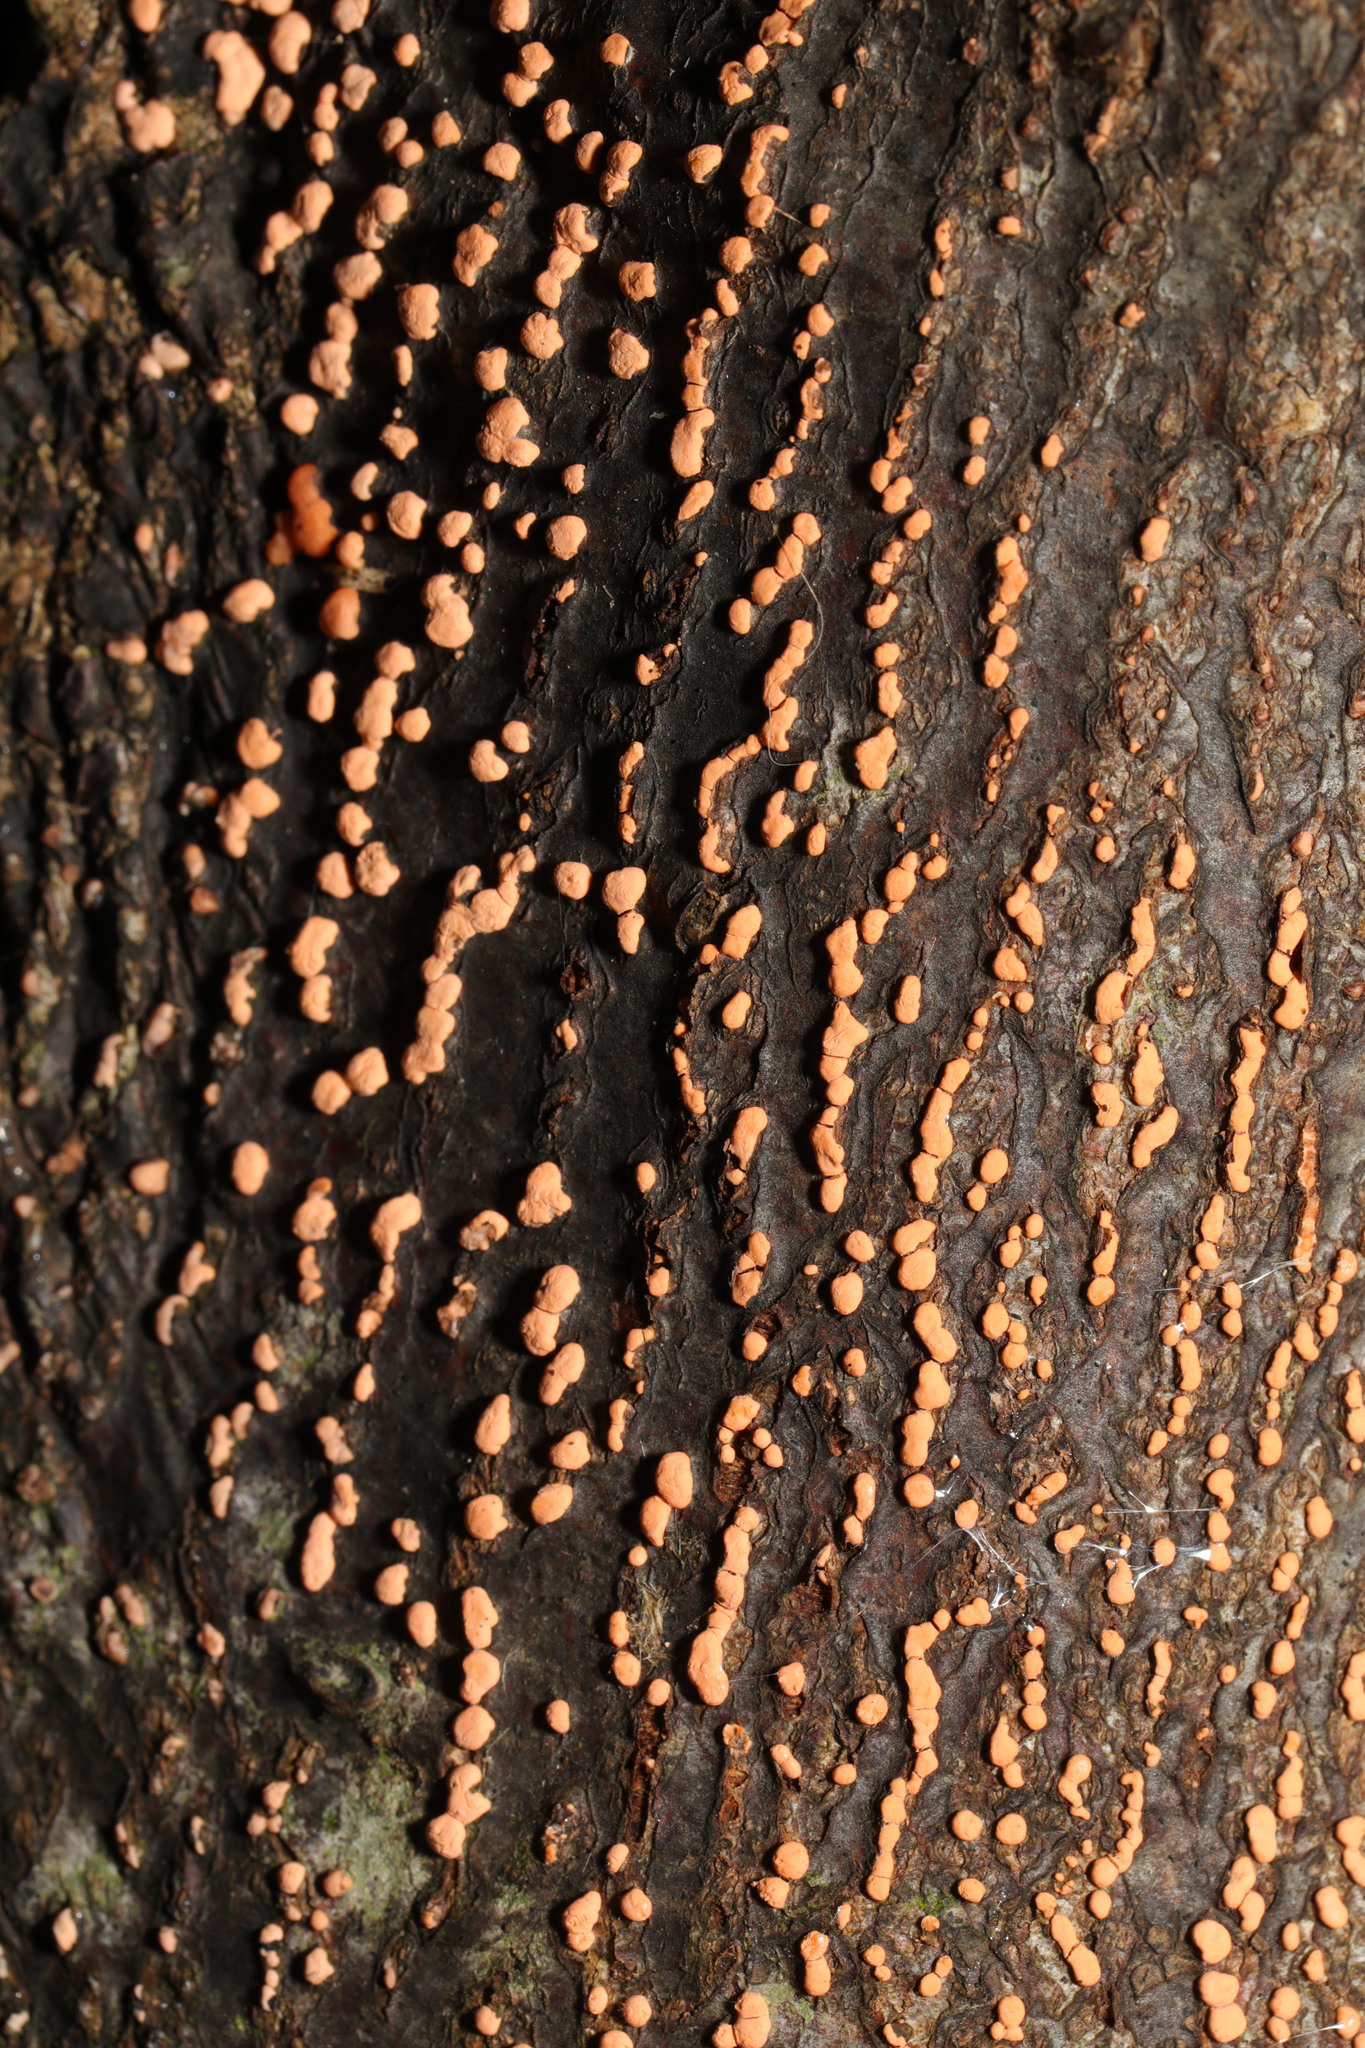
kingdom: Fungi
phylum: Ascomycota
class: Sordariomycetes
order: Hypocreales
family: Nectriaceae
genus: Nectria
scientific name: Nectria cinnabarina
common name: Coral spot
